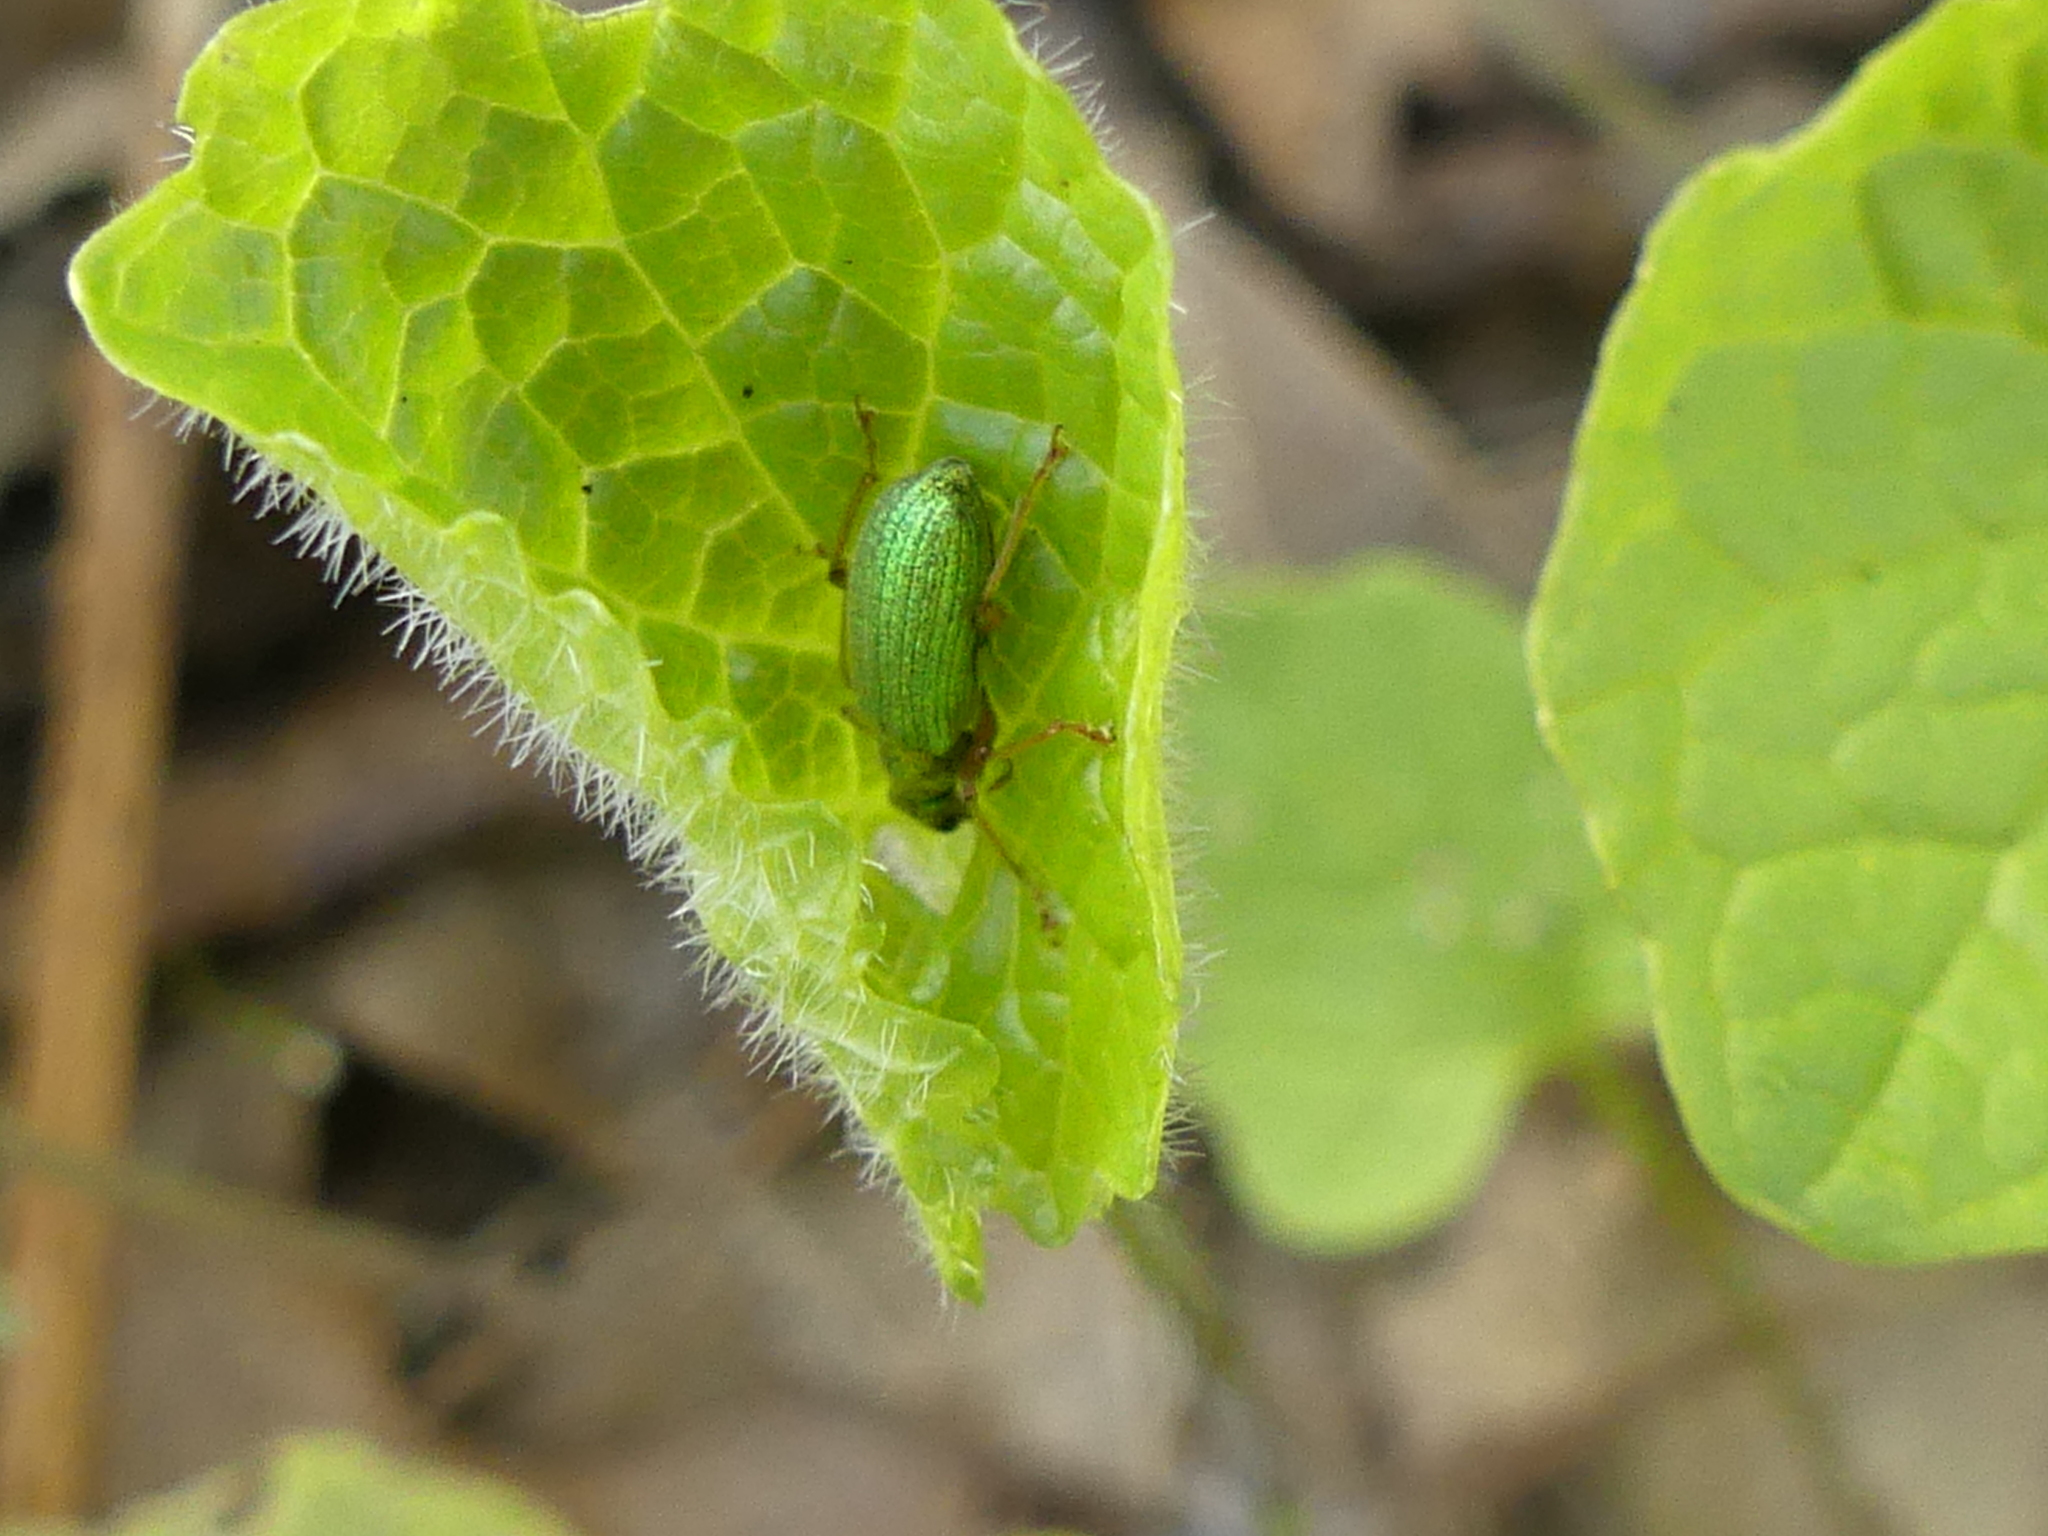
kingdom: Animalia
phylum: Arthropoda
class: Insecta
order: Coleoptera
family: Curculionidae
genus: Polydrusus
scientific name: Polydrusus pterygomalis
